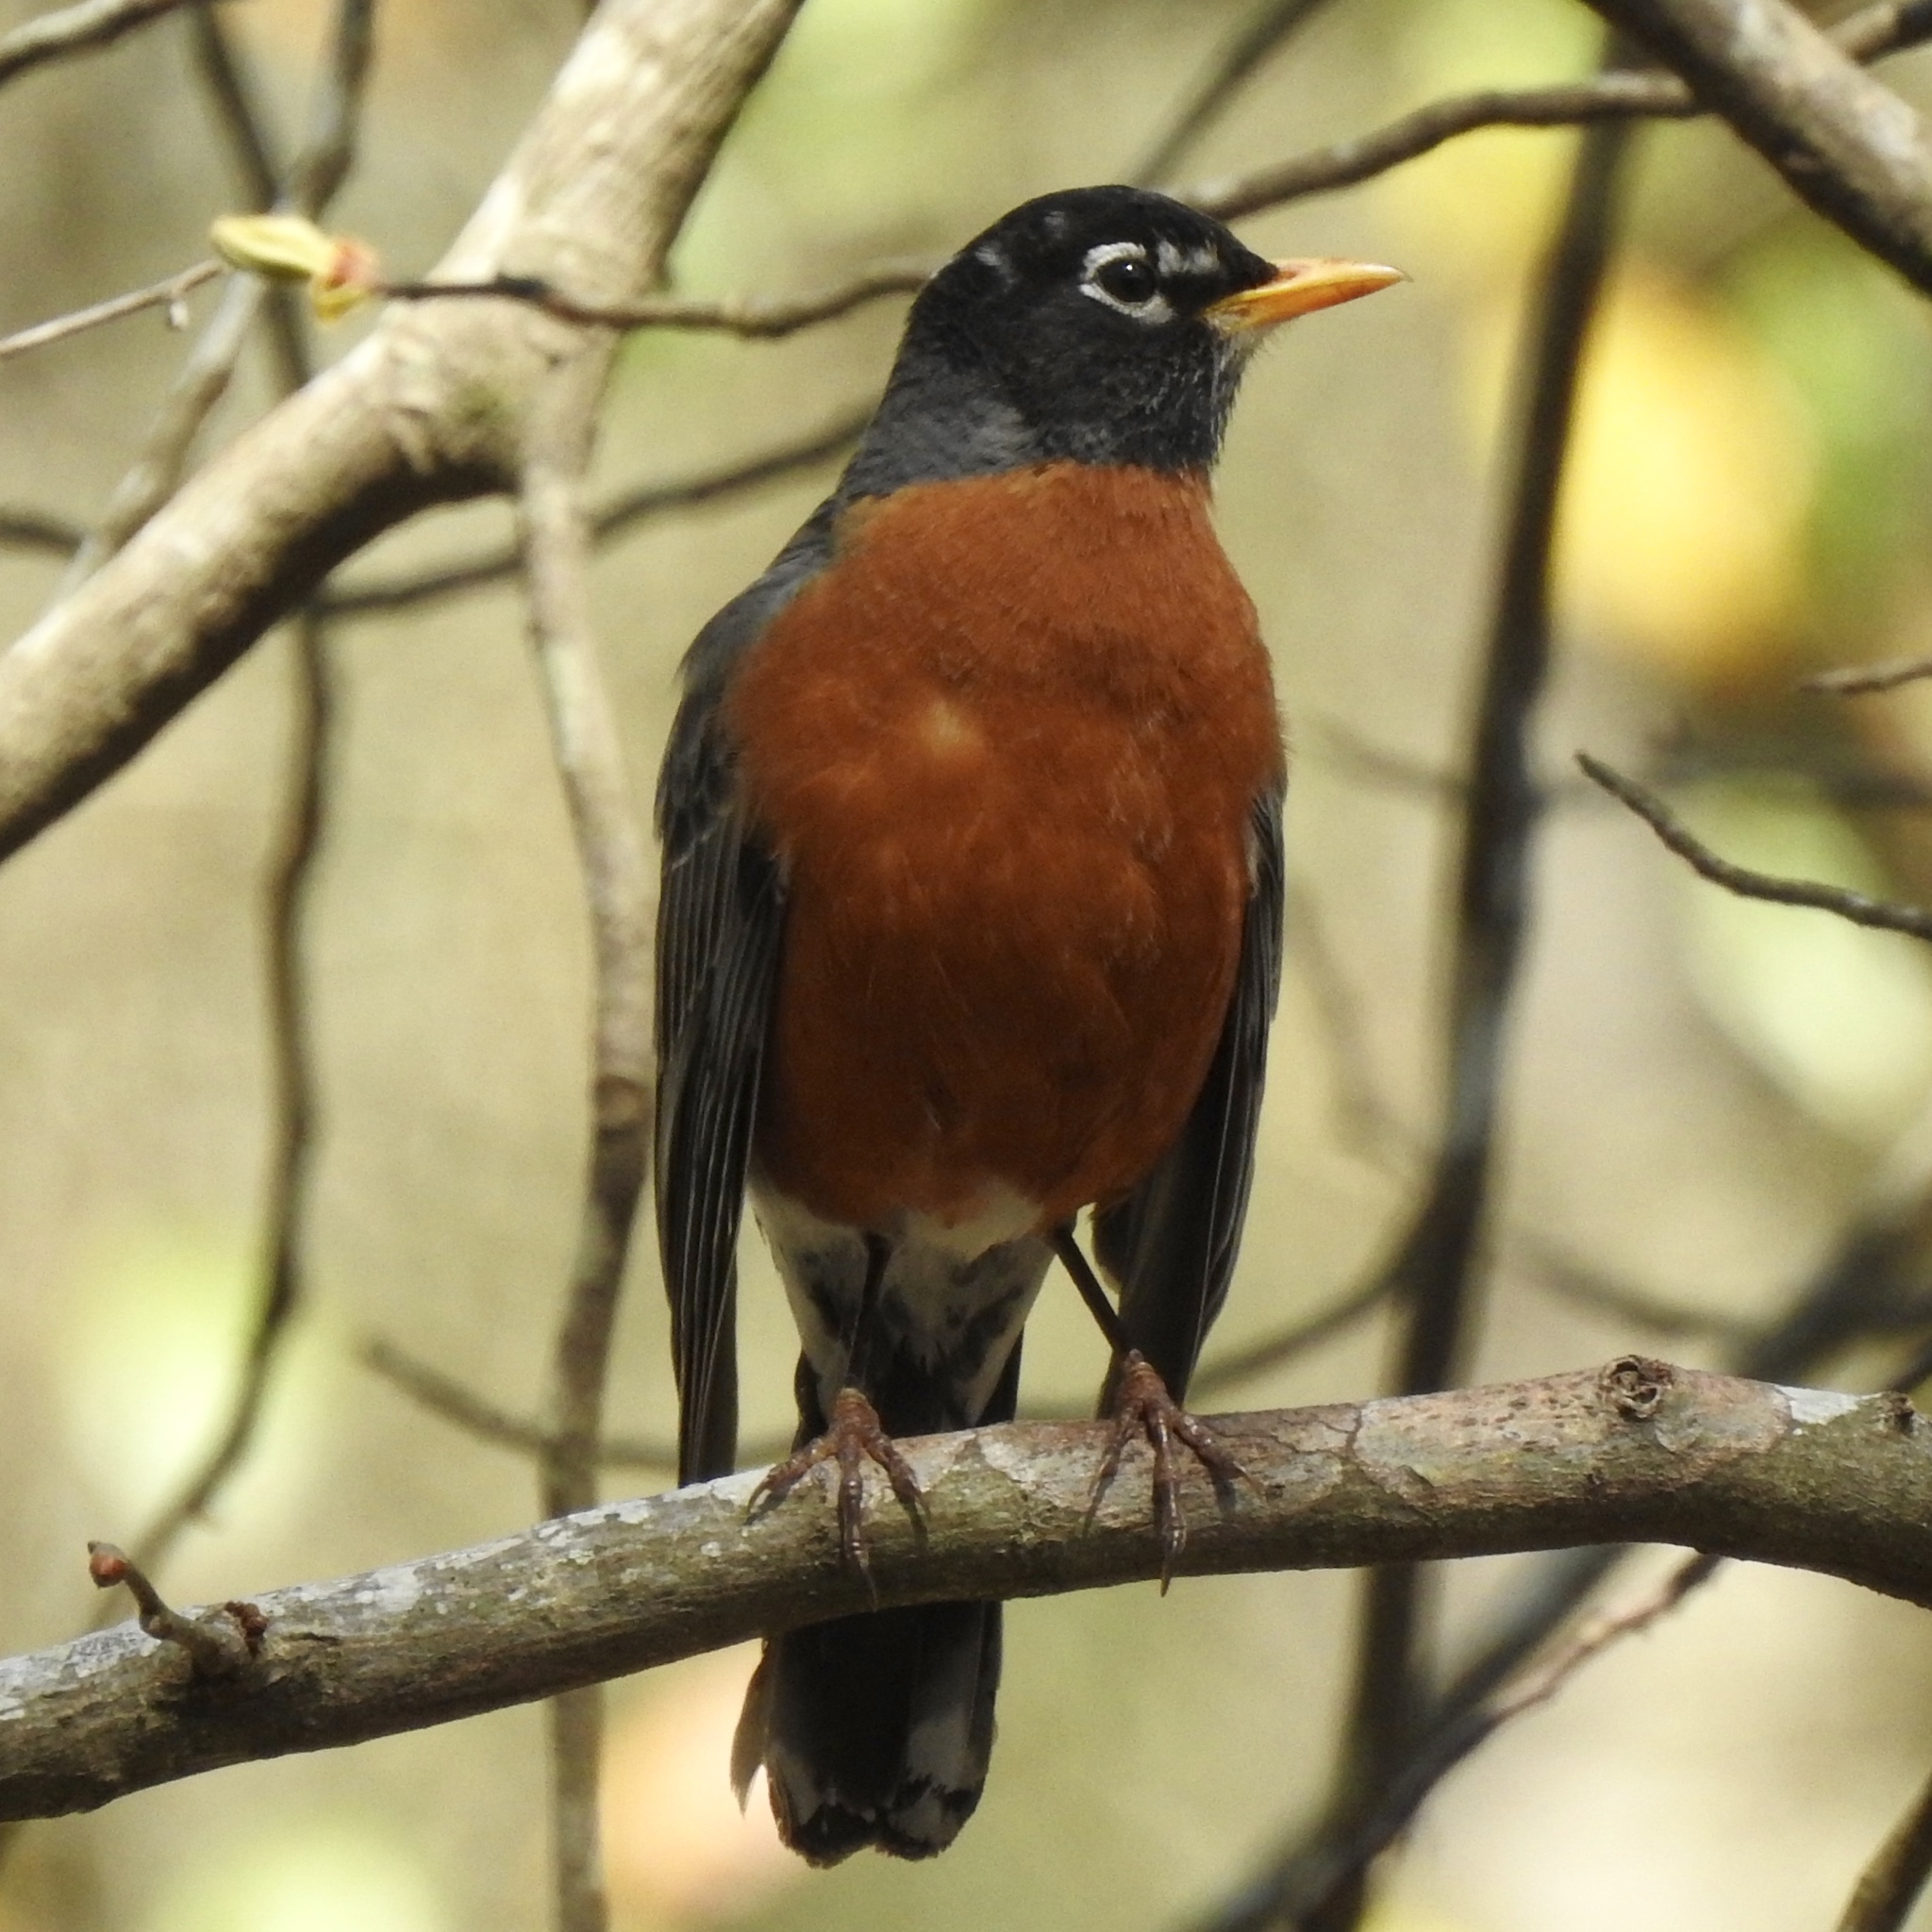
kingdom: Animalia
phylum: Chordata
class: Aves
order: Passeriformes
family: Turdidae
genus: Turdus
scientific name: Turdus migratorius
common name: American robin
